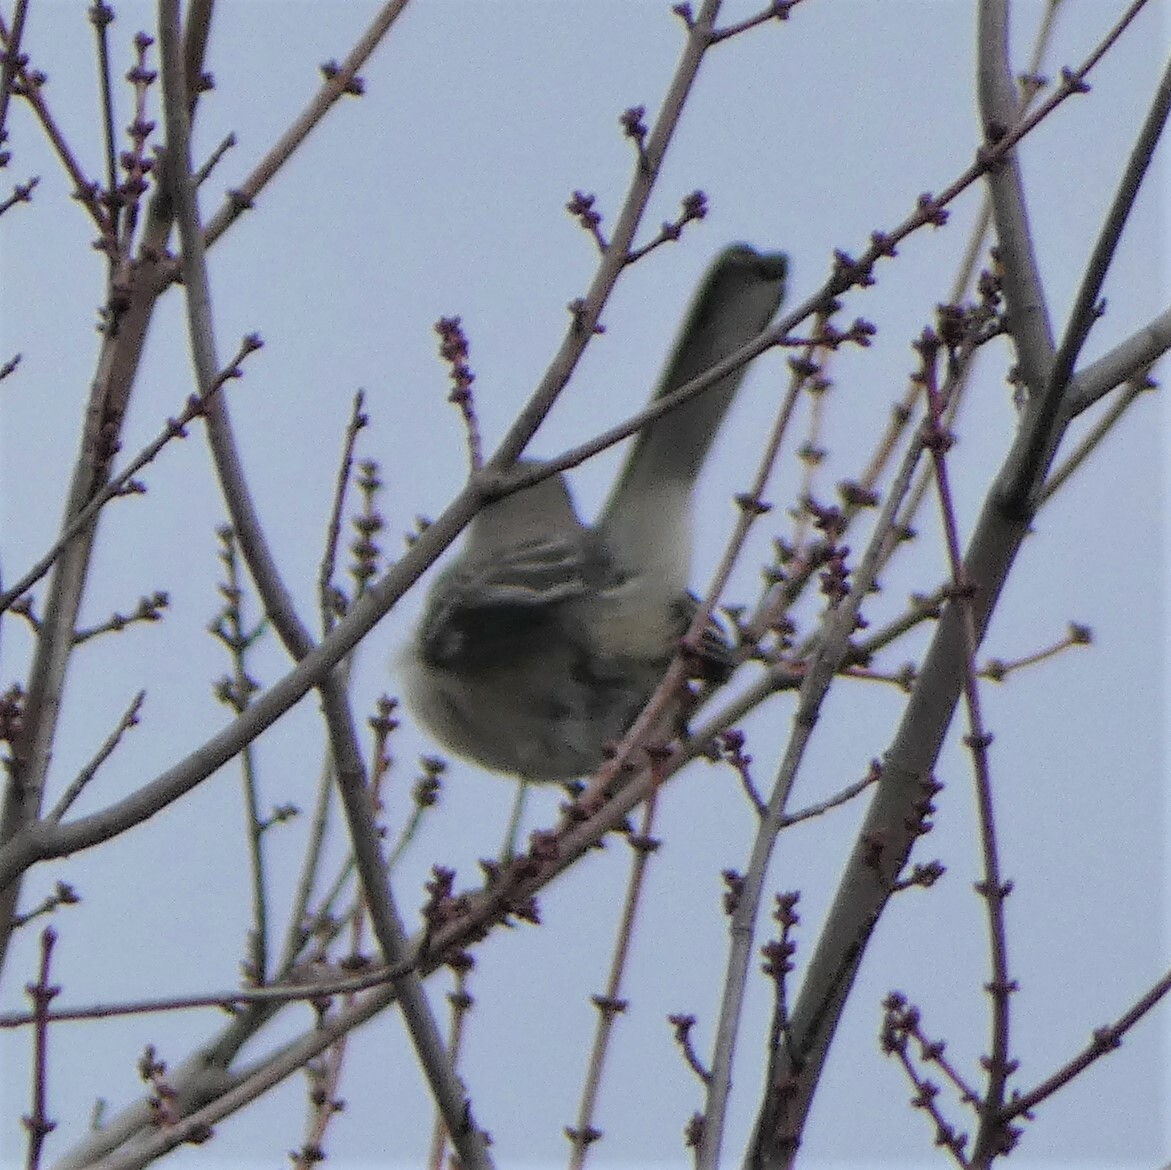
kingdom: Animalia
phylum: Chordata
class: Aves
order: Passeriformes
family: Mimidae
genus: Mimus
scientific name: Mimus polyglottos
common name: Northern mockingbird
